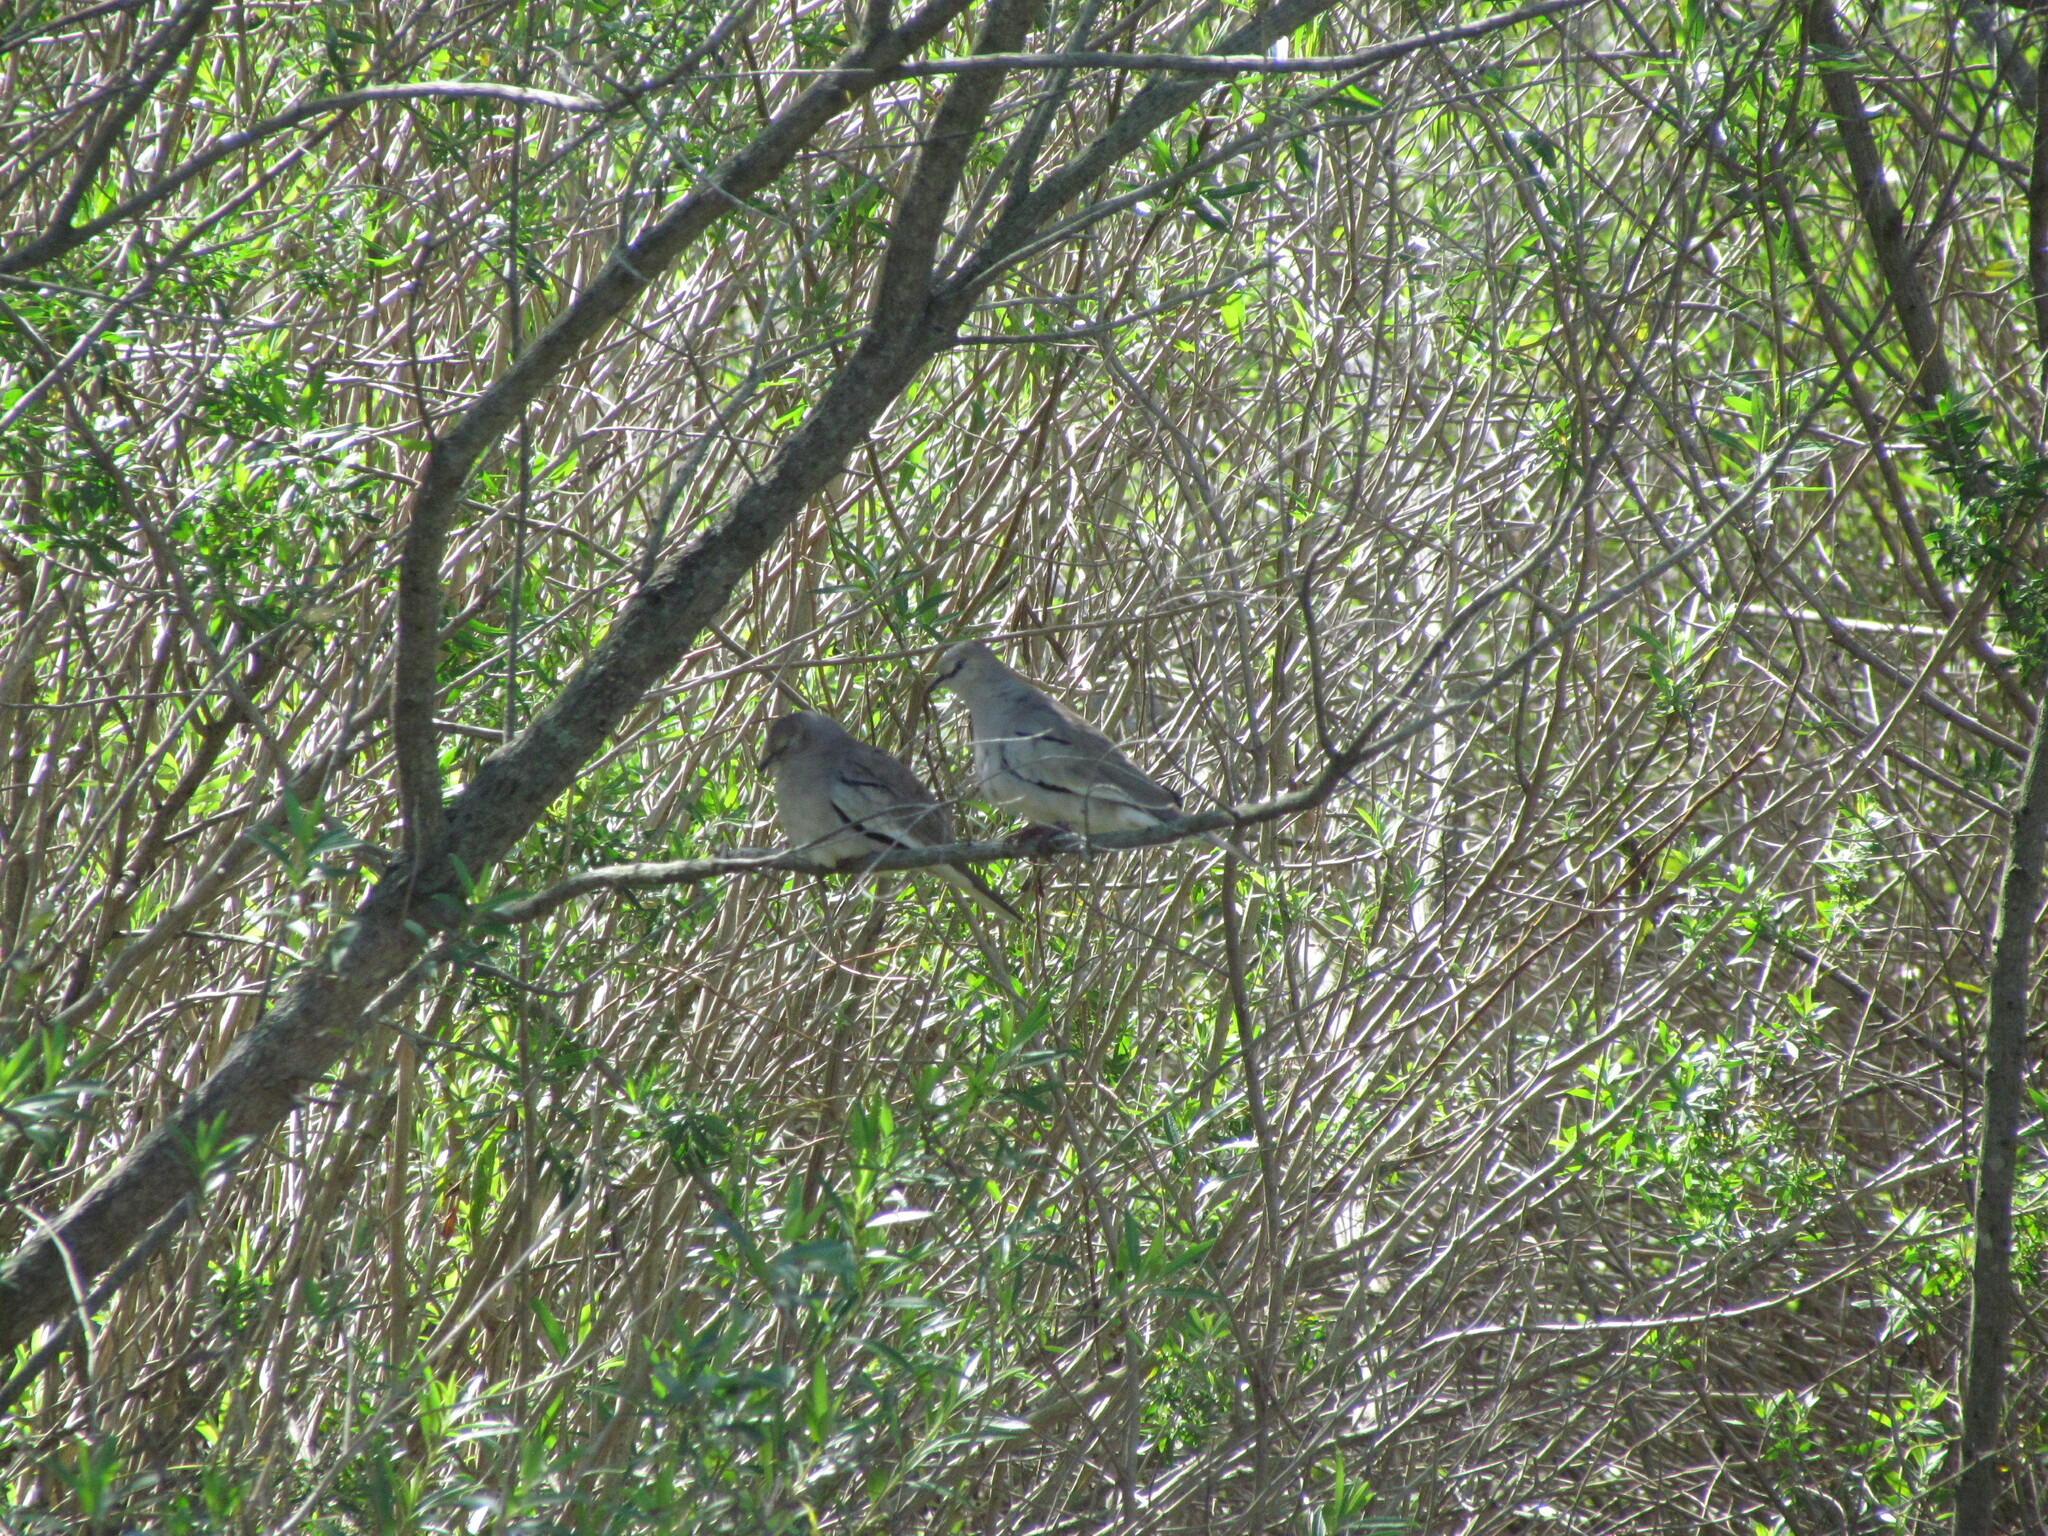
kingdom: Animalia
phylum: Chordata
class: Aves
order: Columbiformes
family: Columbidae
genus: Columbina
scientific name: Columbina picui
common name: Picui ground dove
